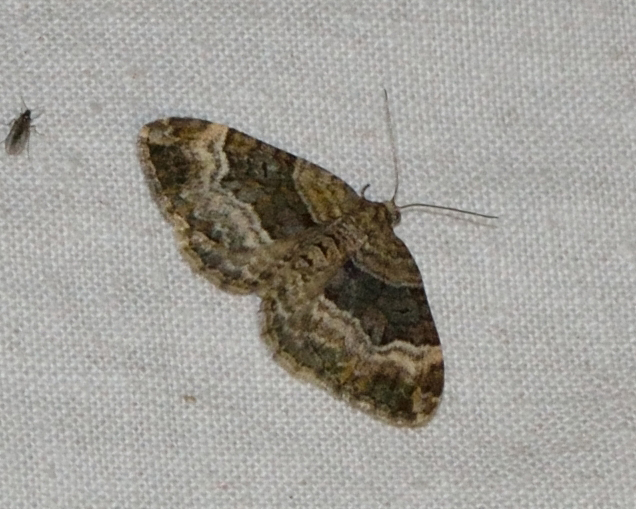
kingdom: Animalia
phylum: Arthropoda
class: Insecta
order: Lepidoptera
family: Geometridae
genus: Xanthorhoe
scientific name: Xanthorhoe biriviata
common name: Balsam carpet
